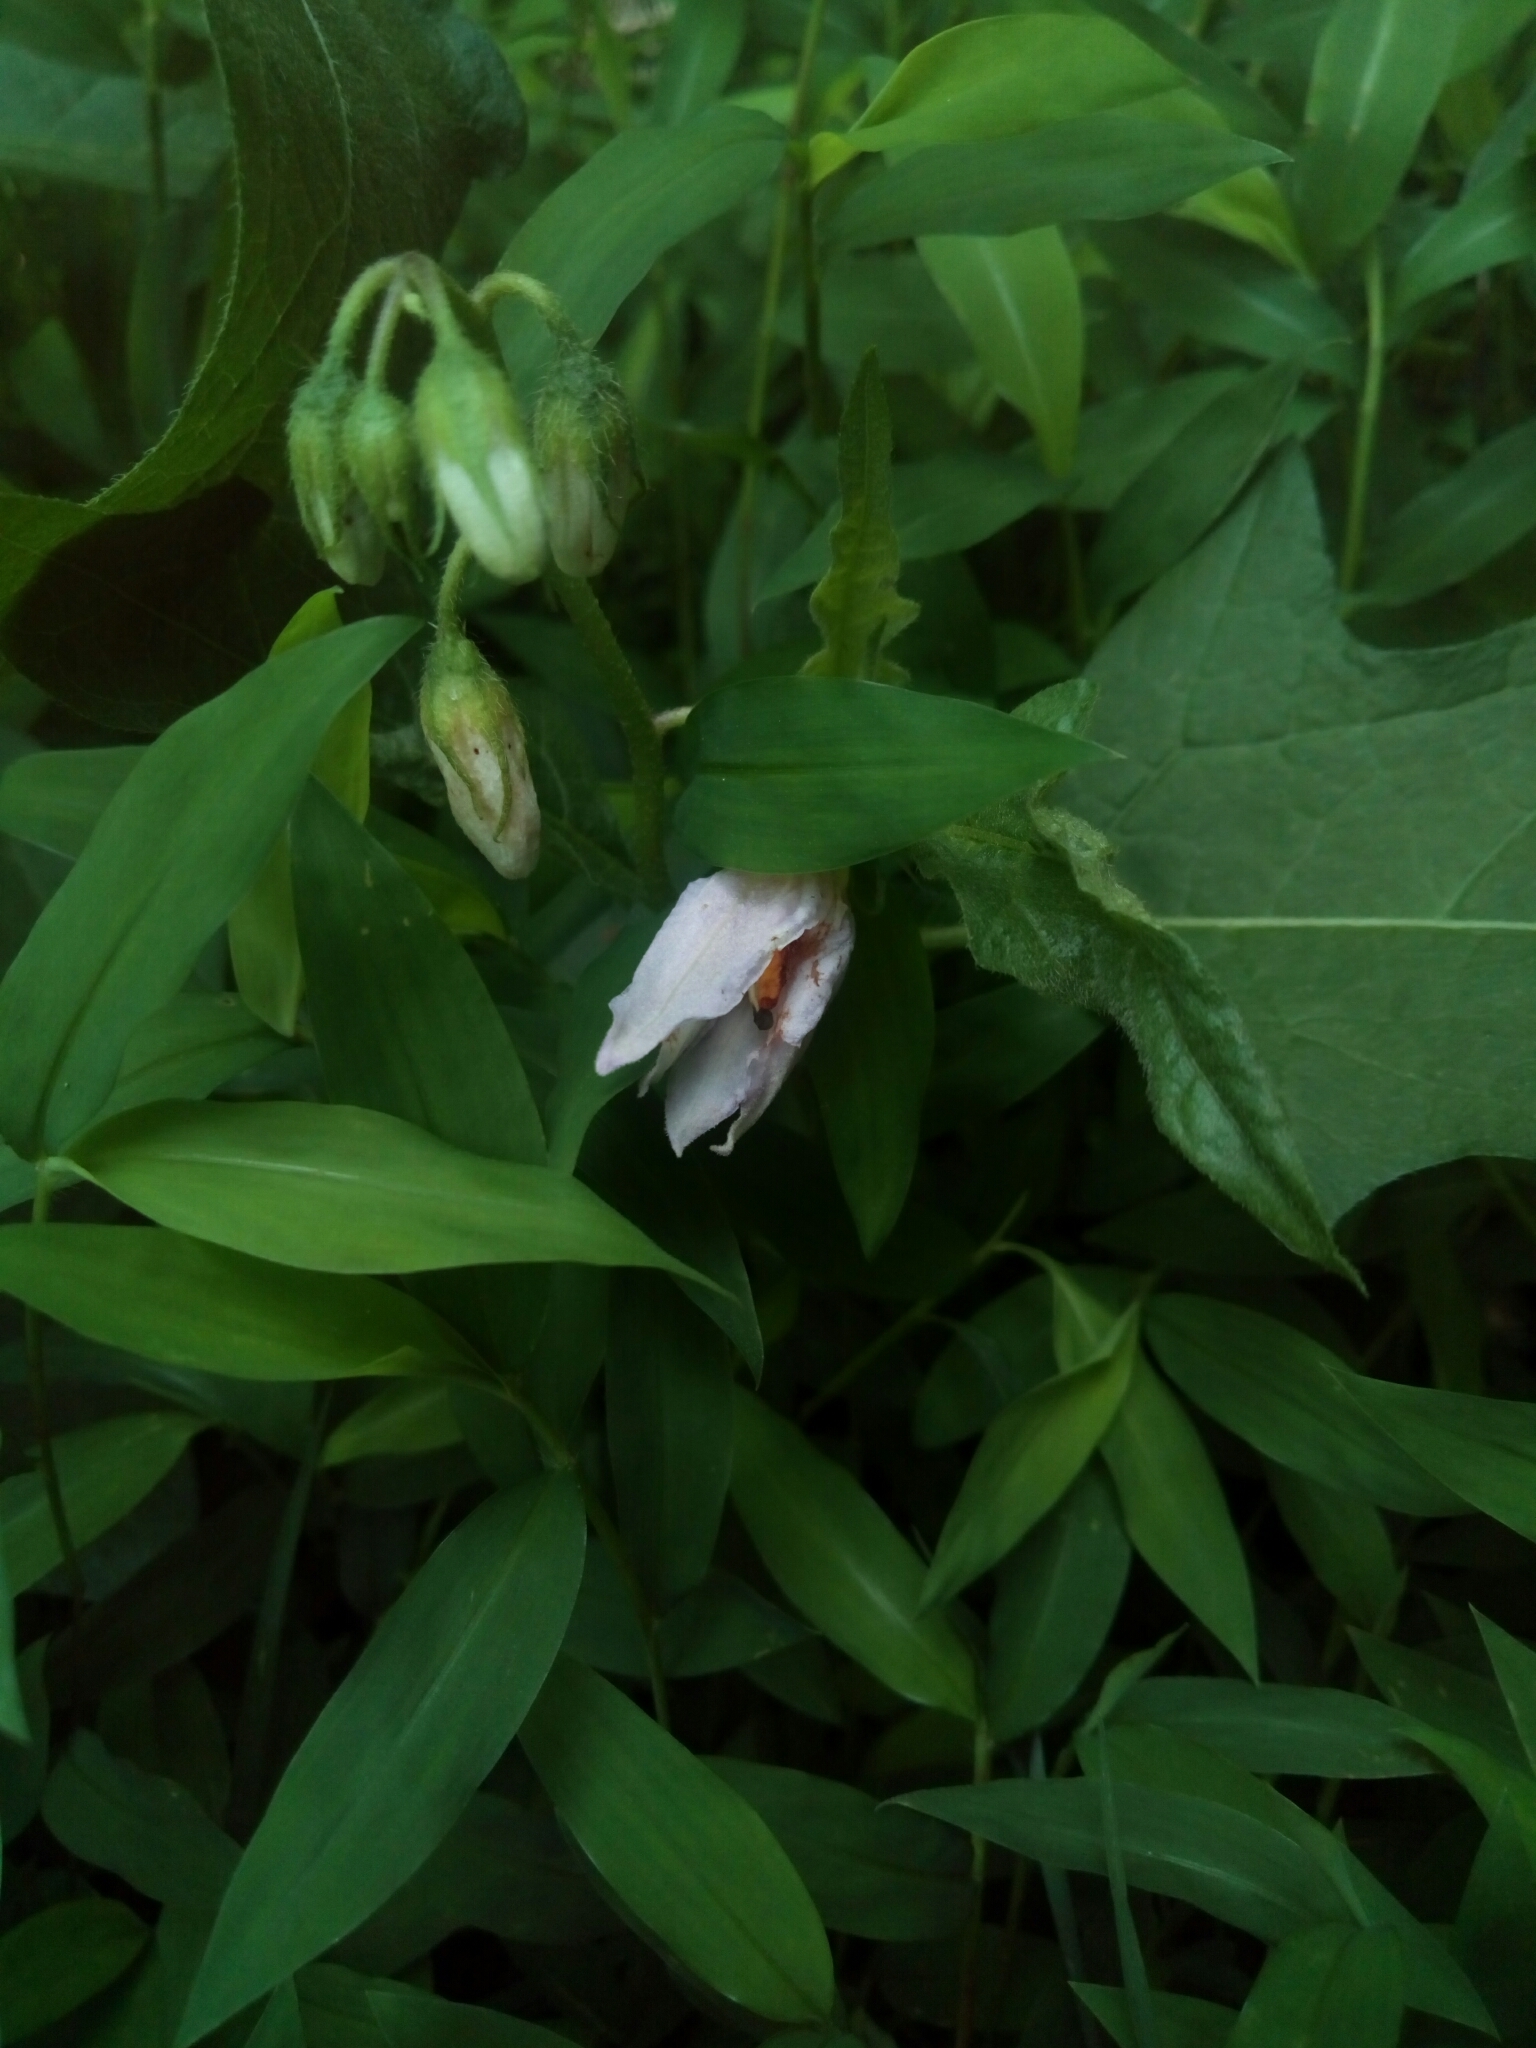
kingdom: Plantae
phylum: Tracheophyta
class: Magnoliopsida
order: Solanales
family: Solanaceae
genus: Solanum
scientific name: Solanum carolinense
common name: Horse-nettle
